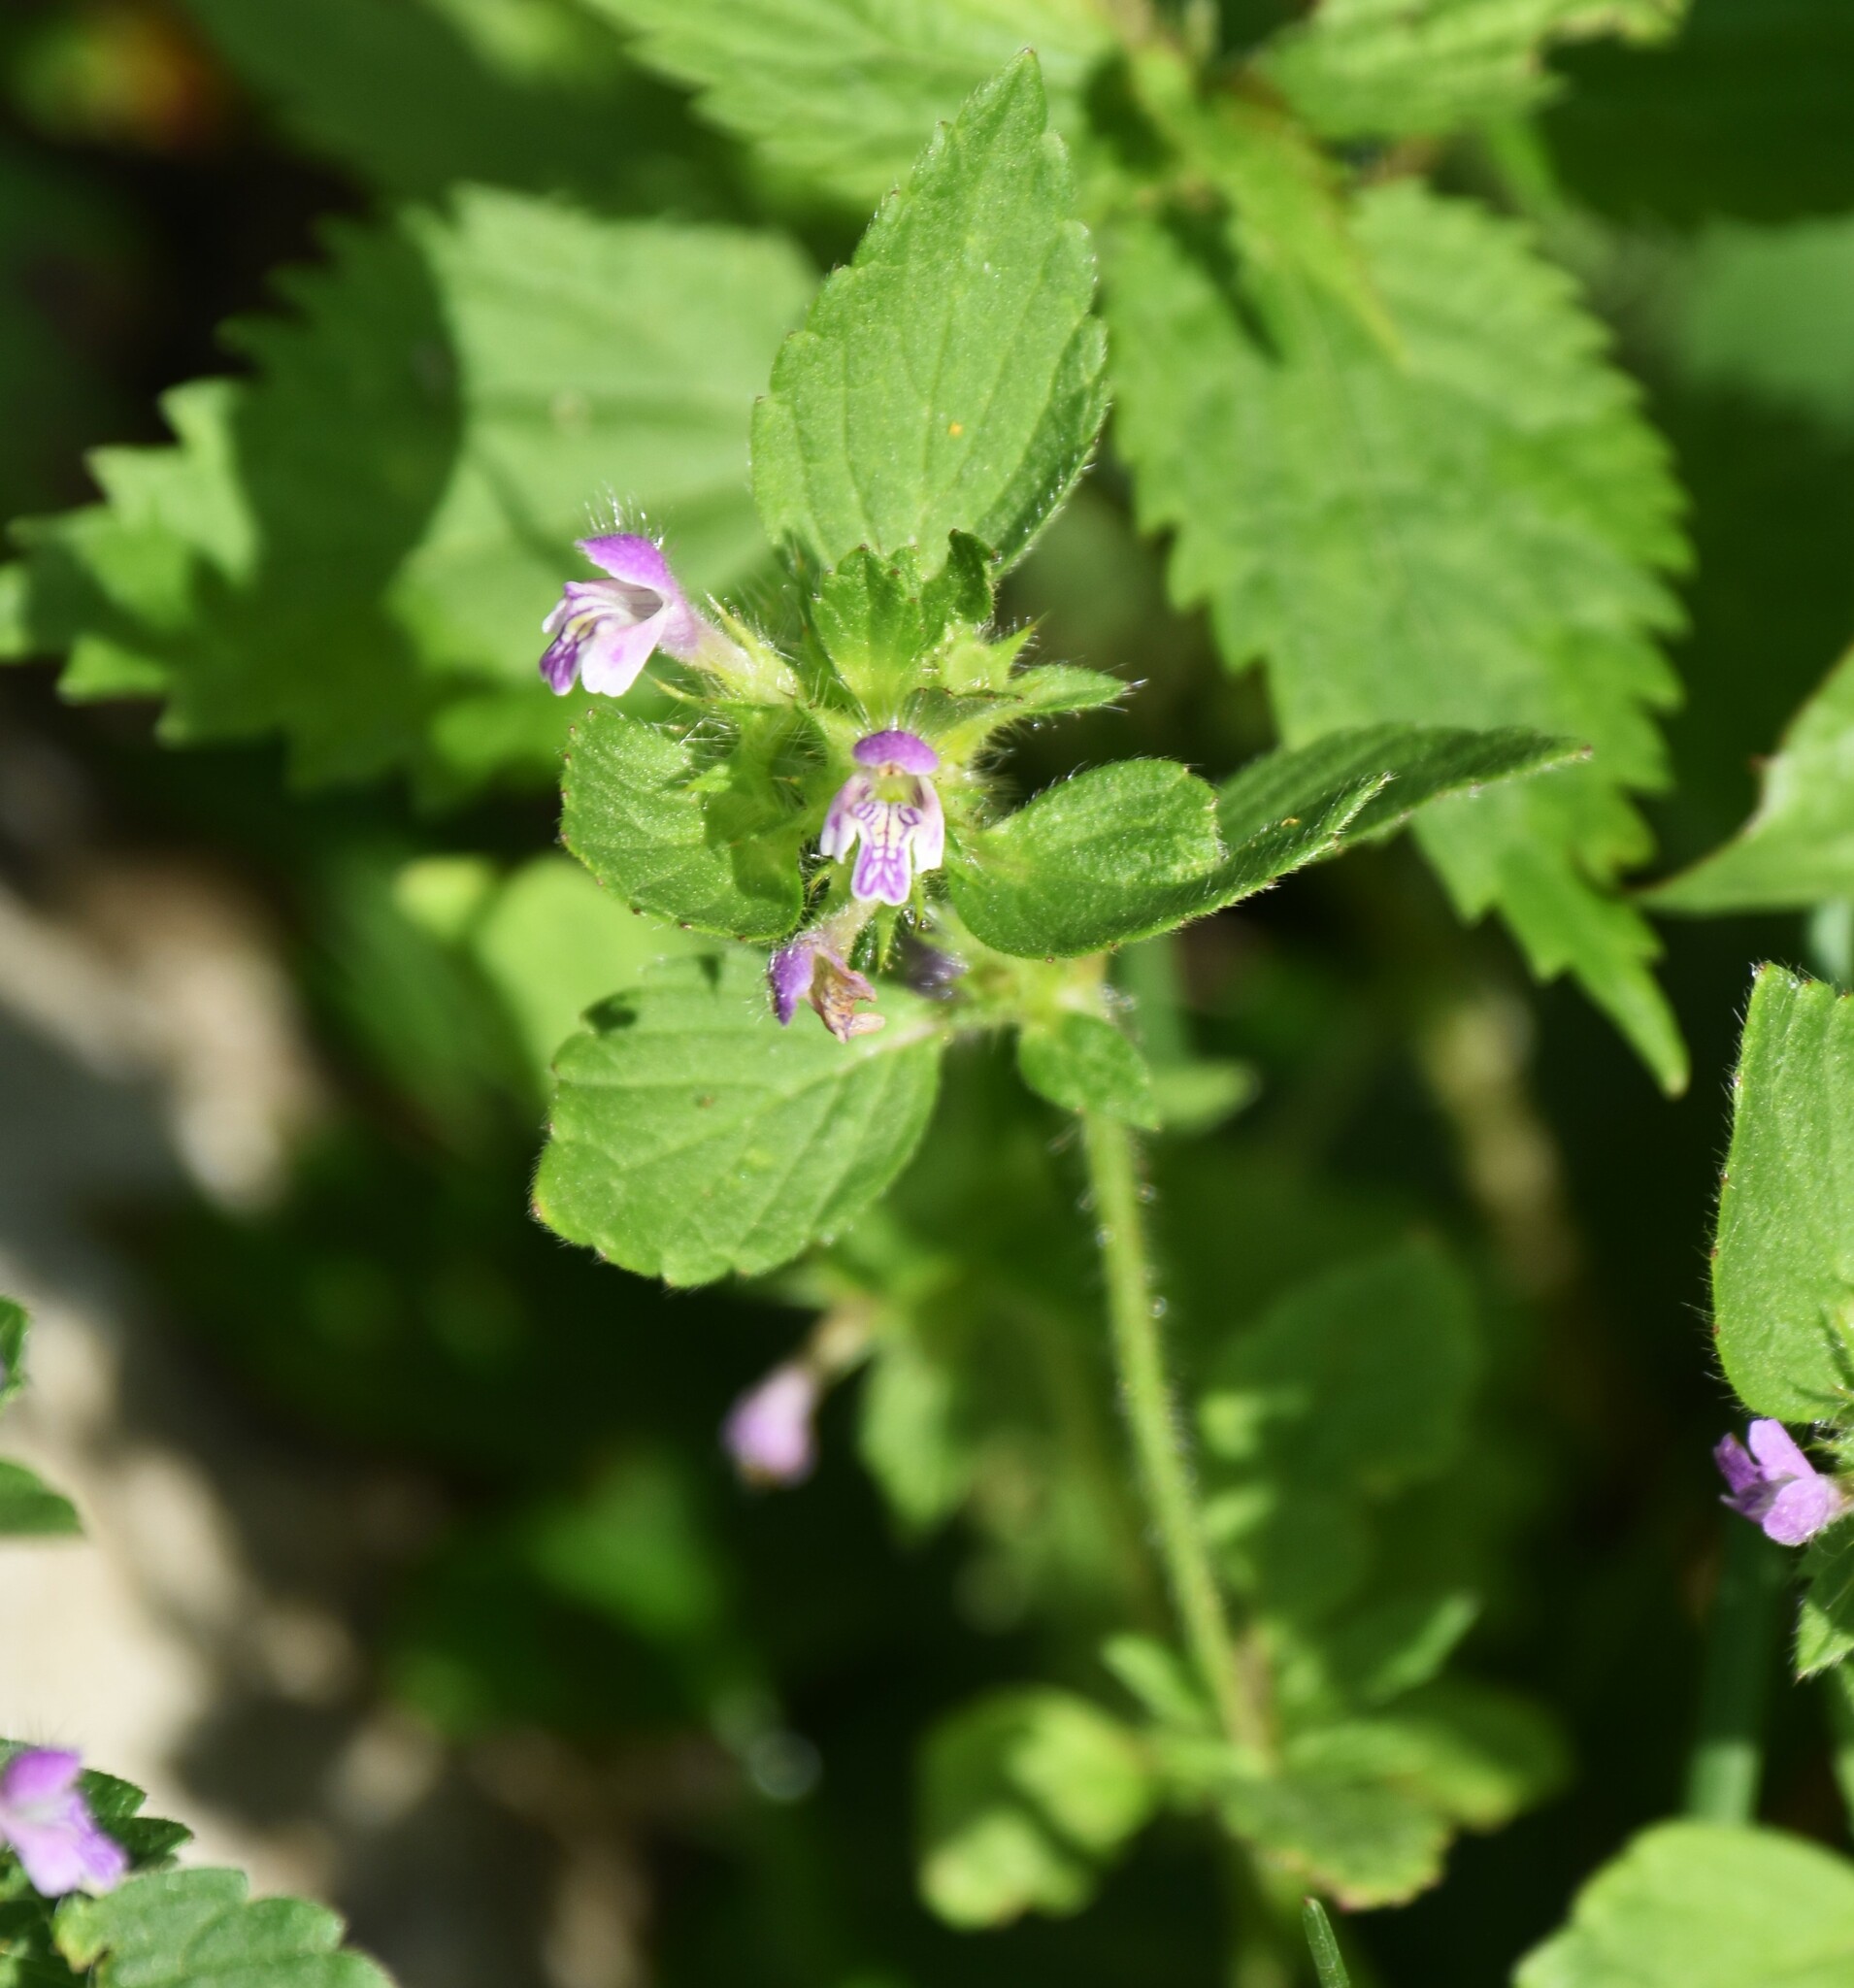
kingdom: Plantae
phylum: Tracheophyta
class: Magnoliopsida
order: Lamiales
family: Lamiaceae
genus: Galeopsis
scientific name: Galeopsis bifida
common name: Bifid hemp-nettle
